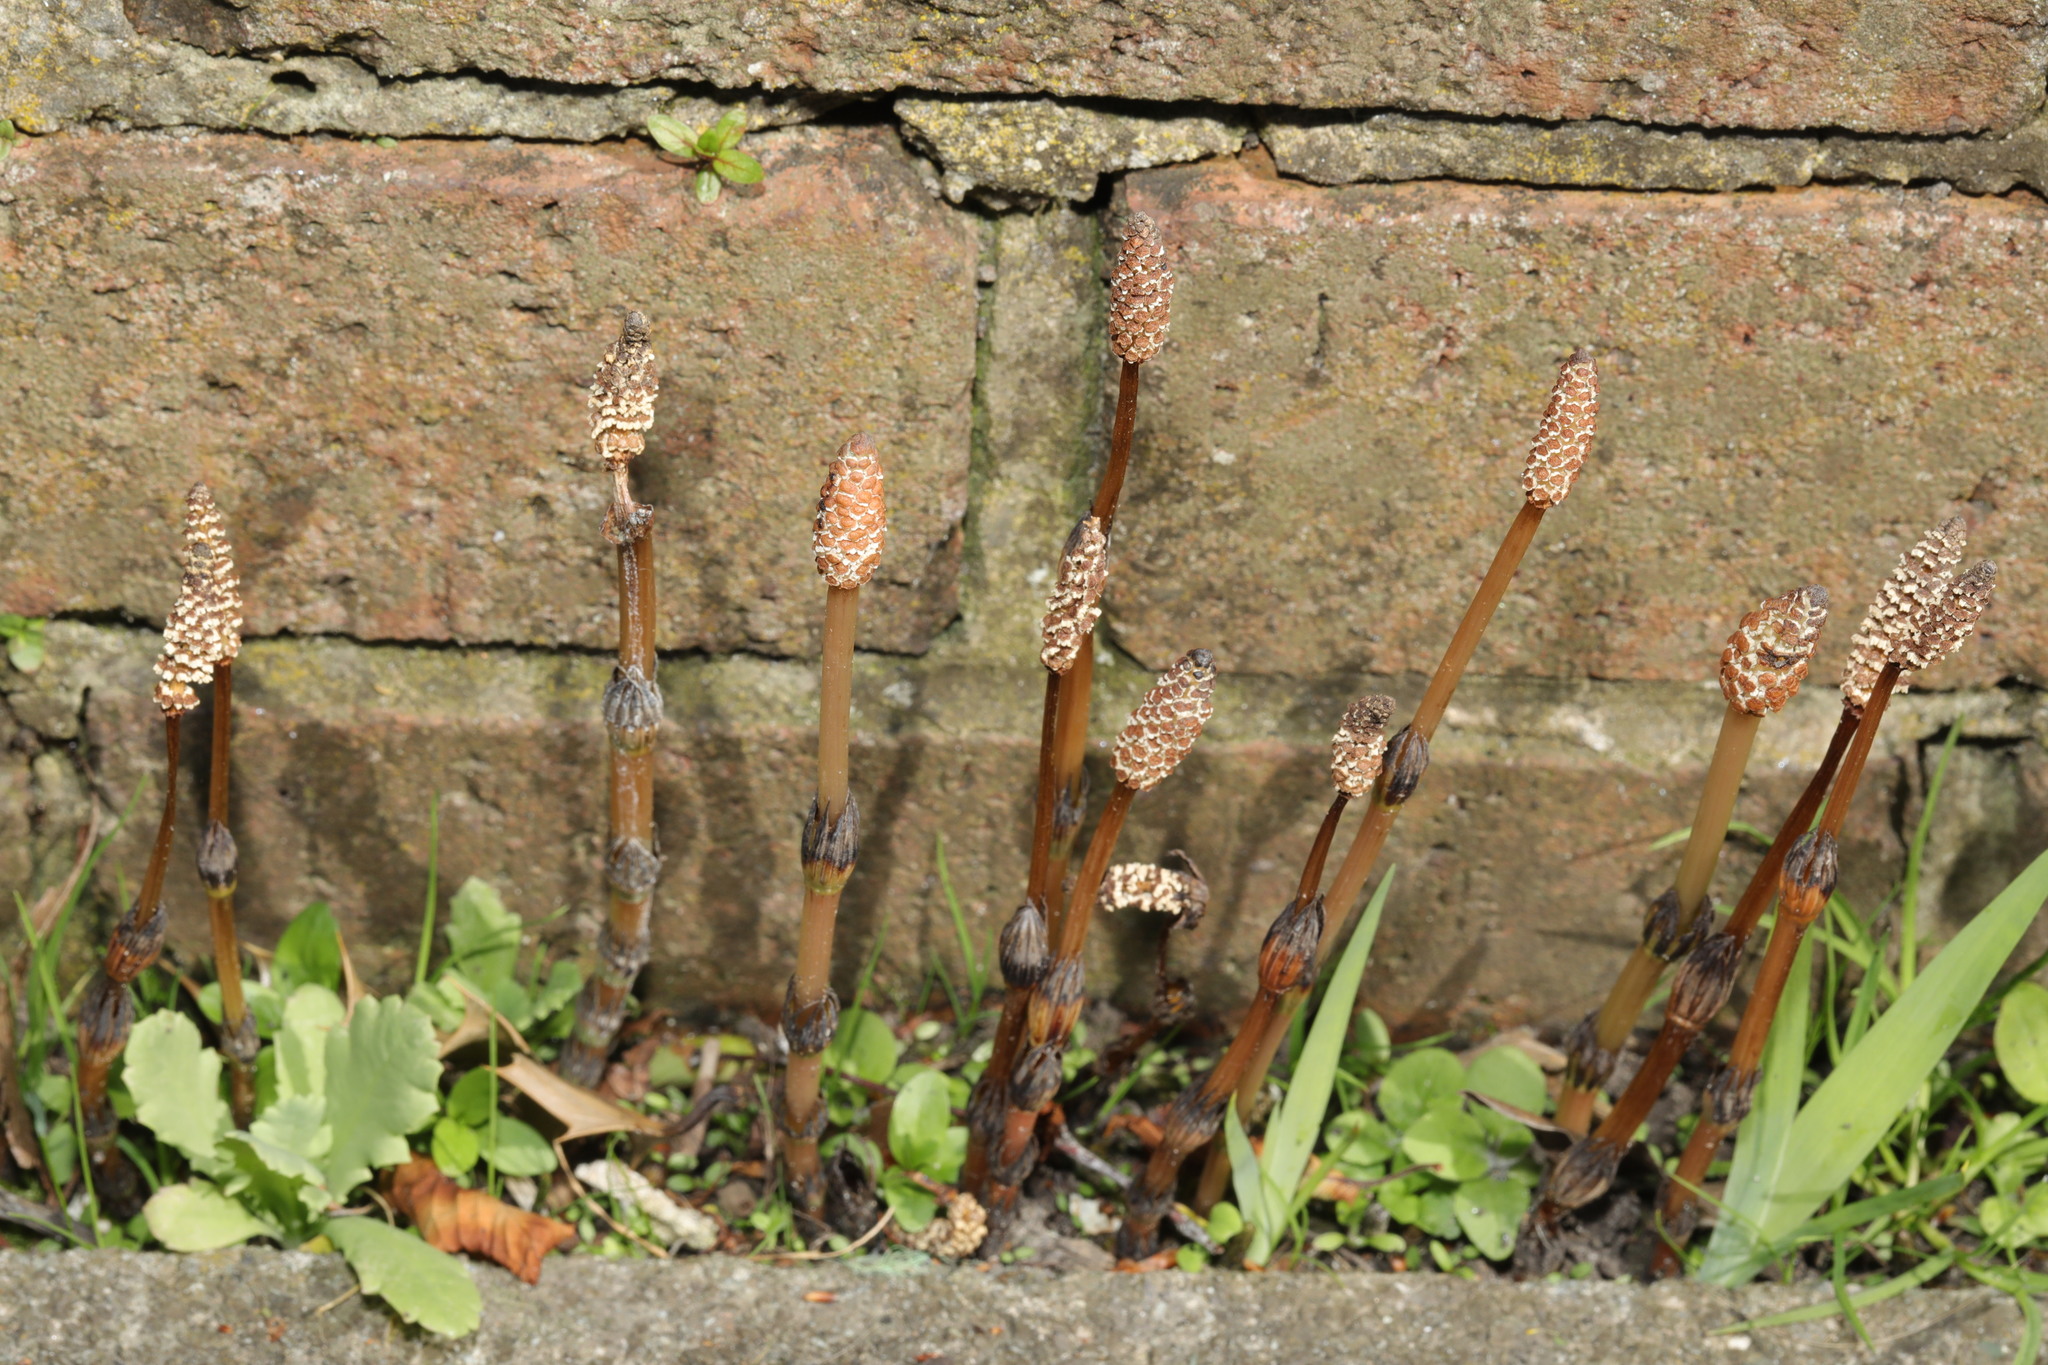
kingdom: Plantae
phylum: Tracheophyta
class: Polypodiopsida
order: Equisetales
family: Equisetaceae
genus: Equisetum
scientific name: Equisetum arvense
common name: Field horsetail
